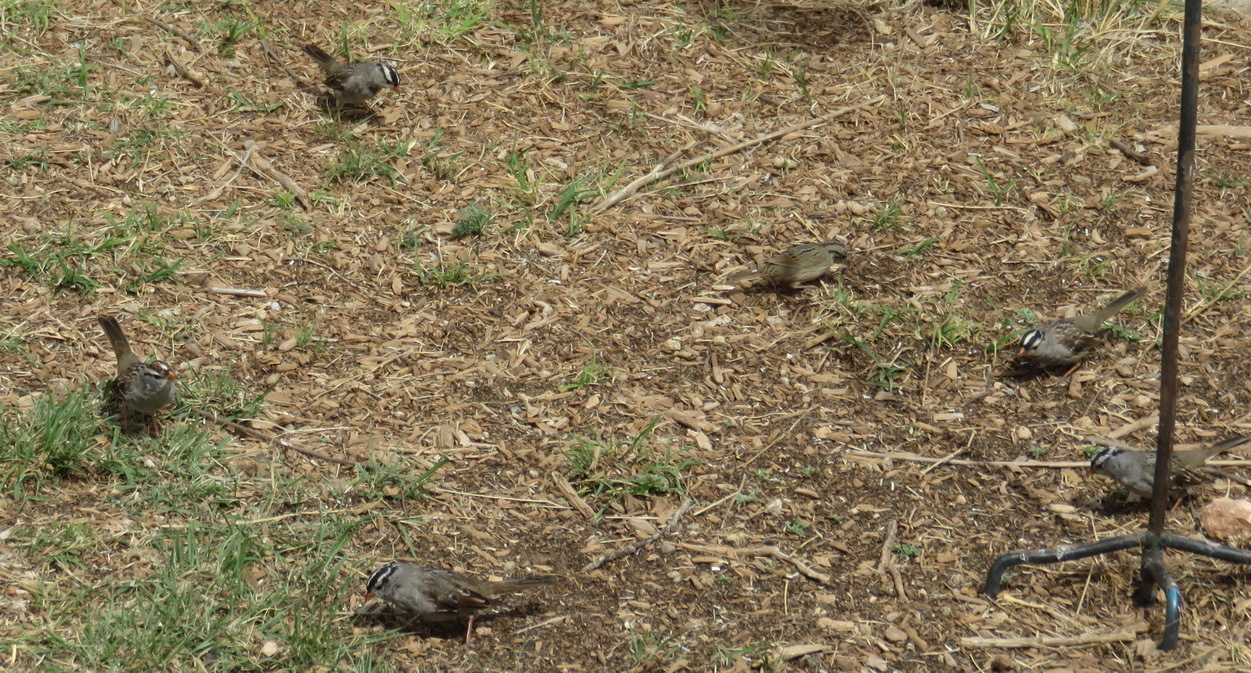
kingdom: Animalia
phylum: Chordata
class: Aves
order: Passeriformes
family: Passerellidae
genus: Zonotrichia
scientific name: Zonotrichia leucophrys
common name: White-crowned sparrow
